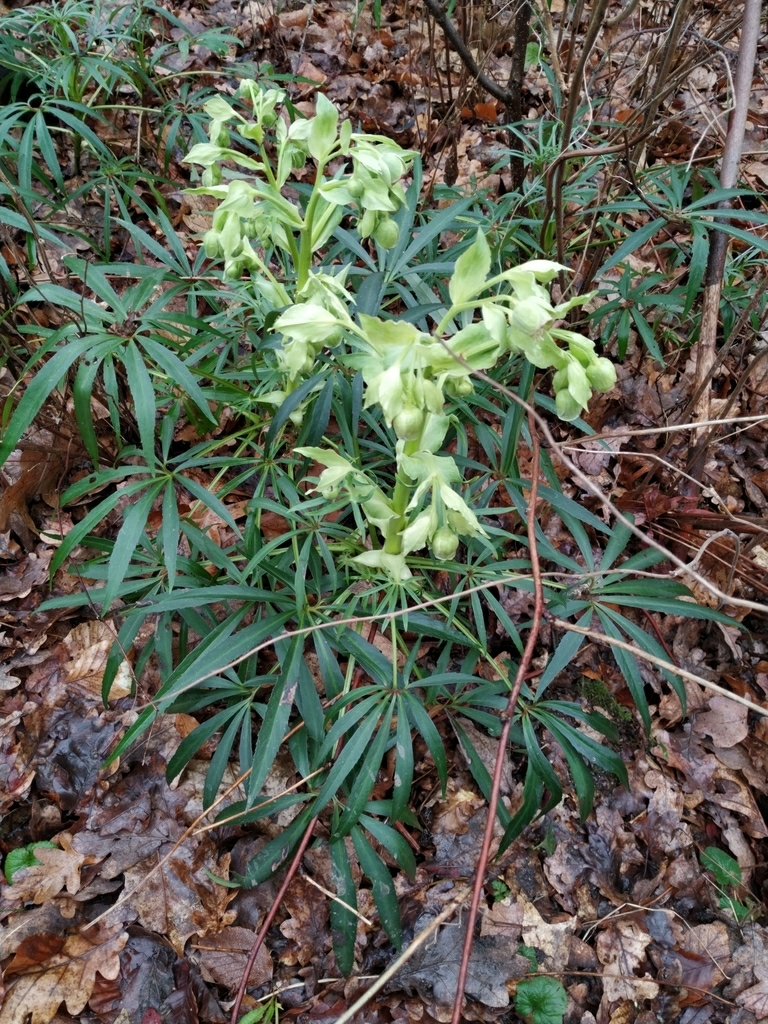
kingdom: Plantae
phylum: Tracheophyta
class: Magnoliopsida
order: Ranunculales
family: Ranunculaceae
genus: Helleborus
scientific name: Helleborus foetidus
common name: Stinking hellebore
